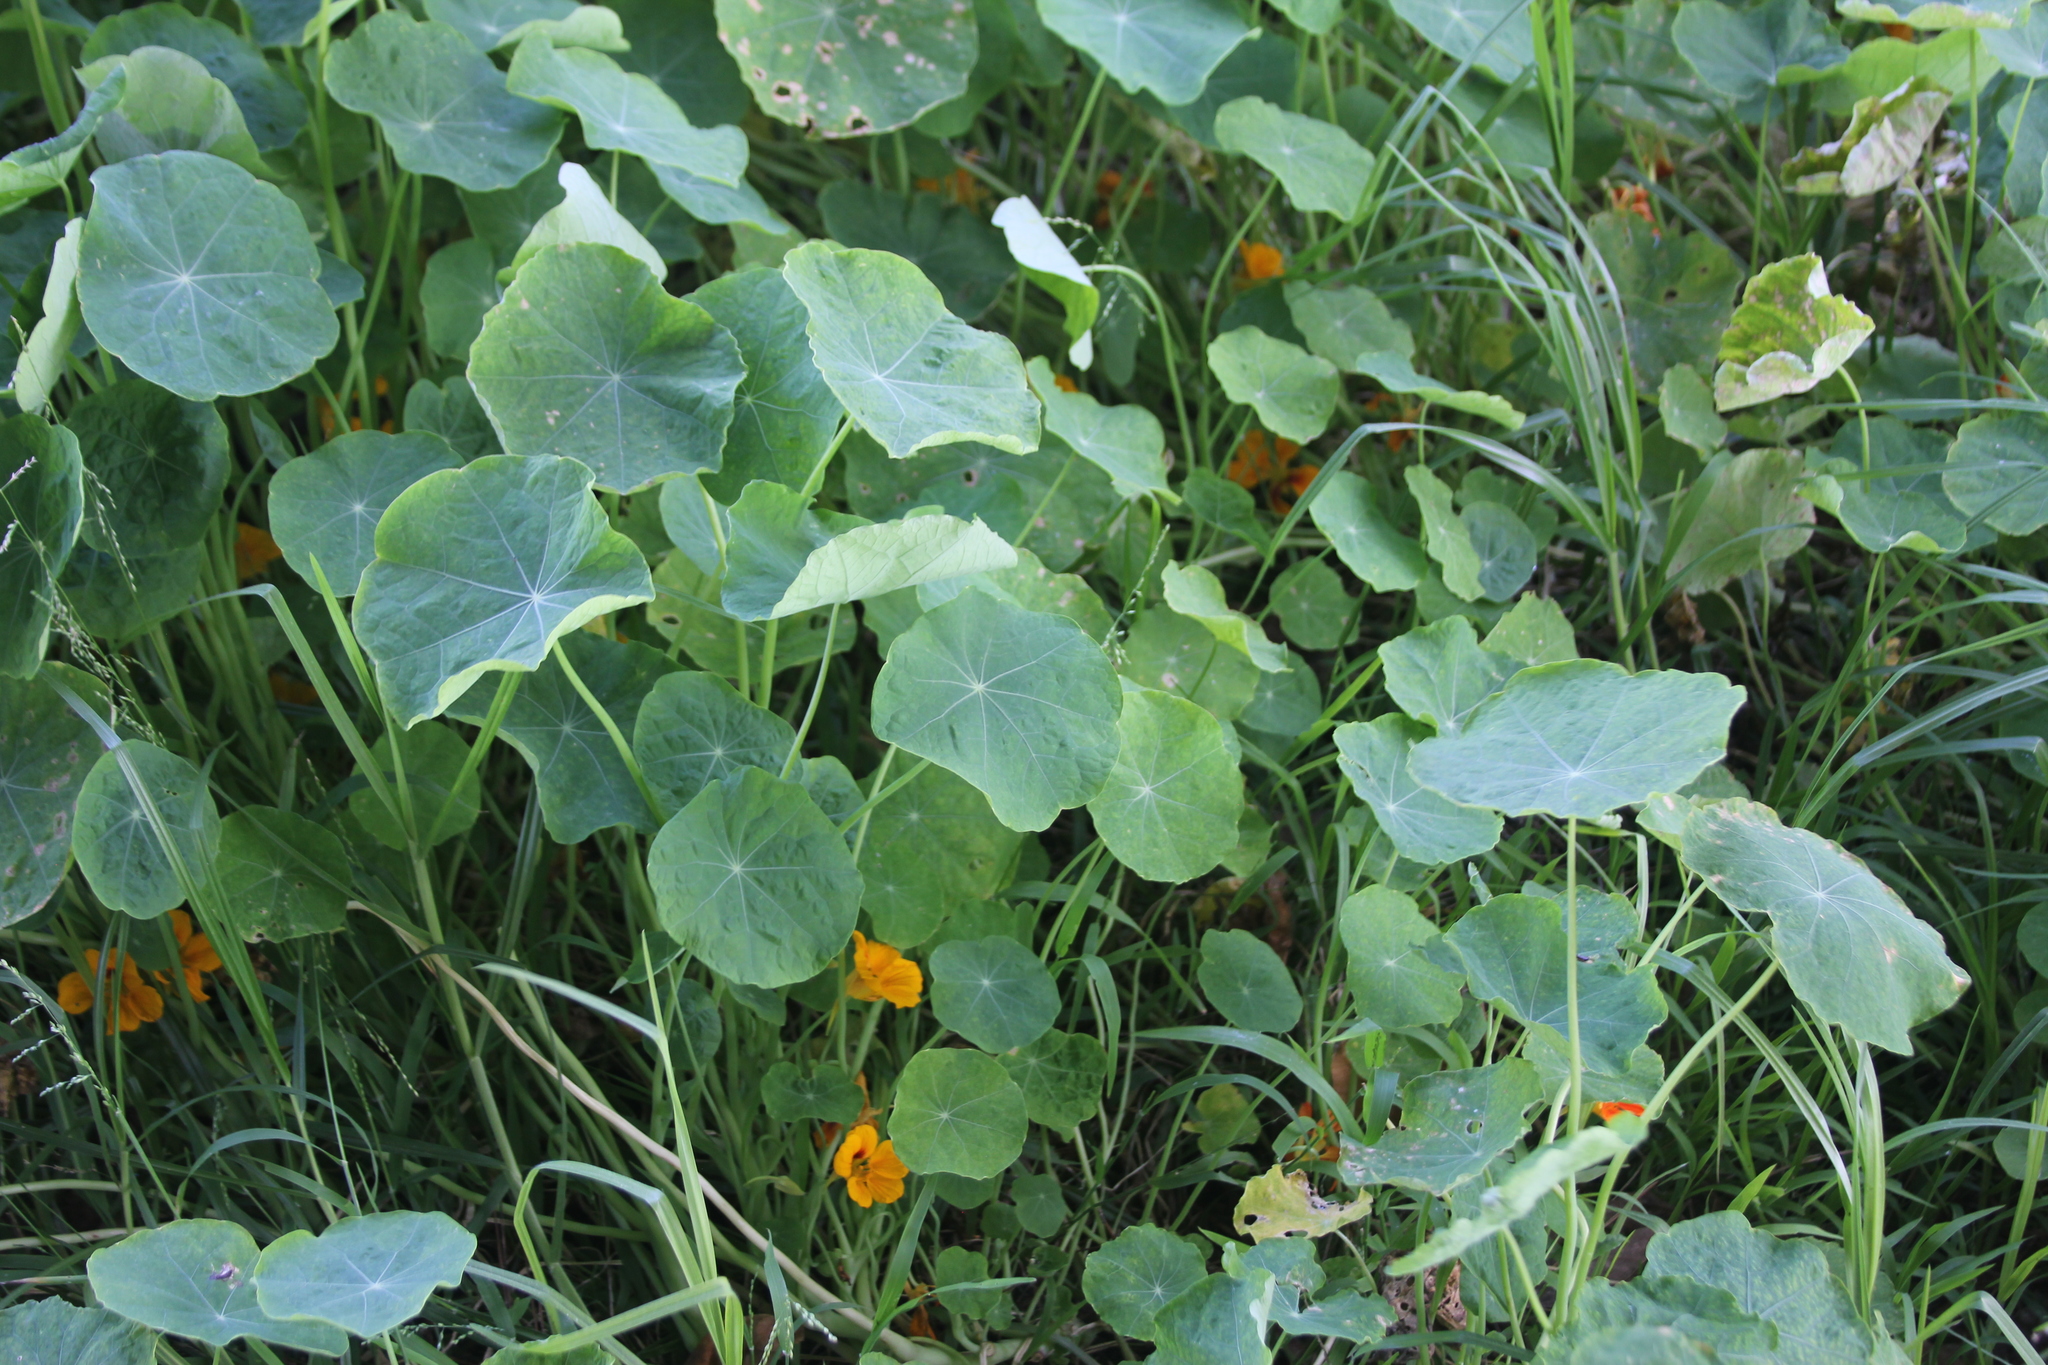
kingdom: Plantae
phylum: Tracheophyta
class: Magnoliopsida
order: Brassicales
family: Tropaeolaceae
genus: Tropaeolum
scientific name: Tropaeolum majus
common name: Nasturtium
